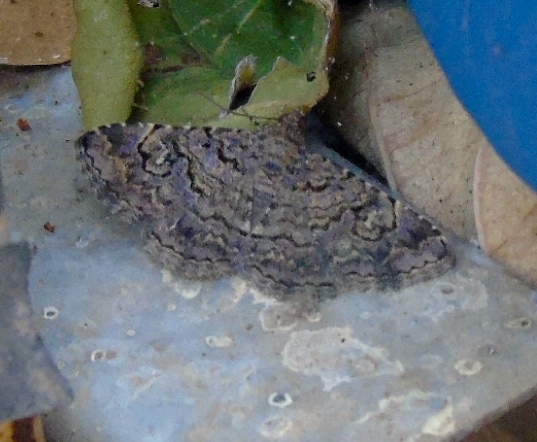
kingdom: Animalia
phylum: Arthropoda
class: Insecta
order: Lepidoptera
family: Erebidae
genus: Toxonprucha
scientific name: Toxonprucha
